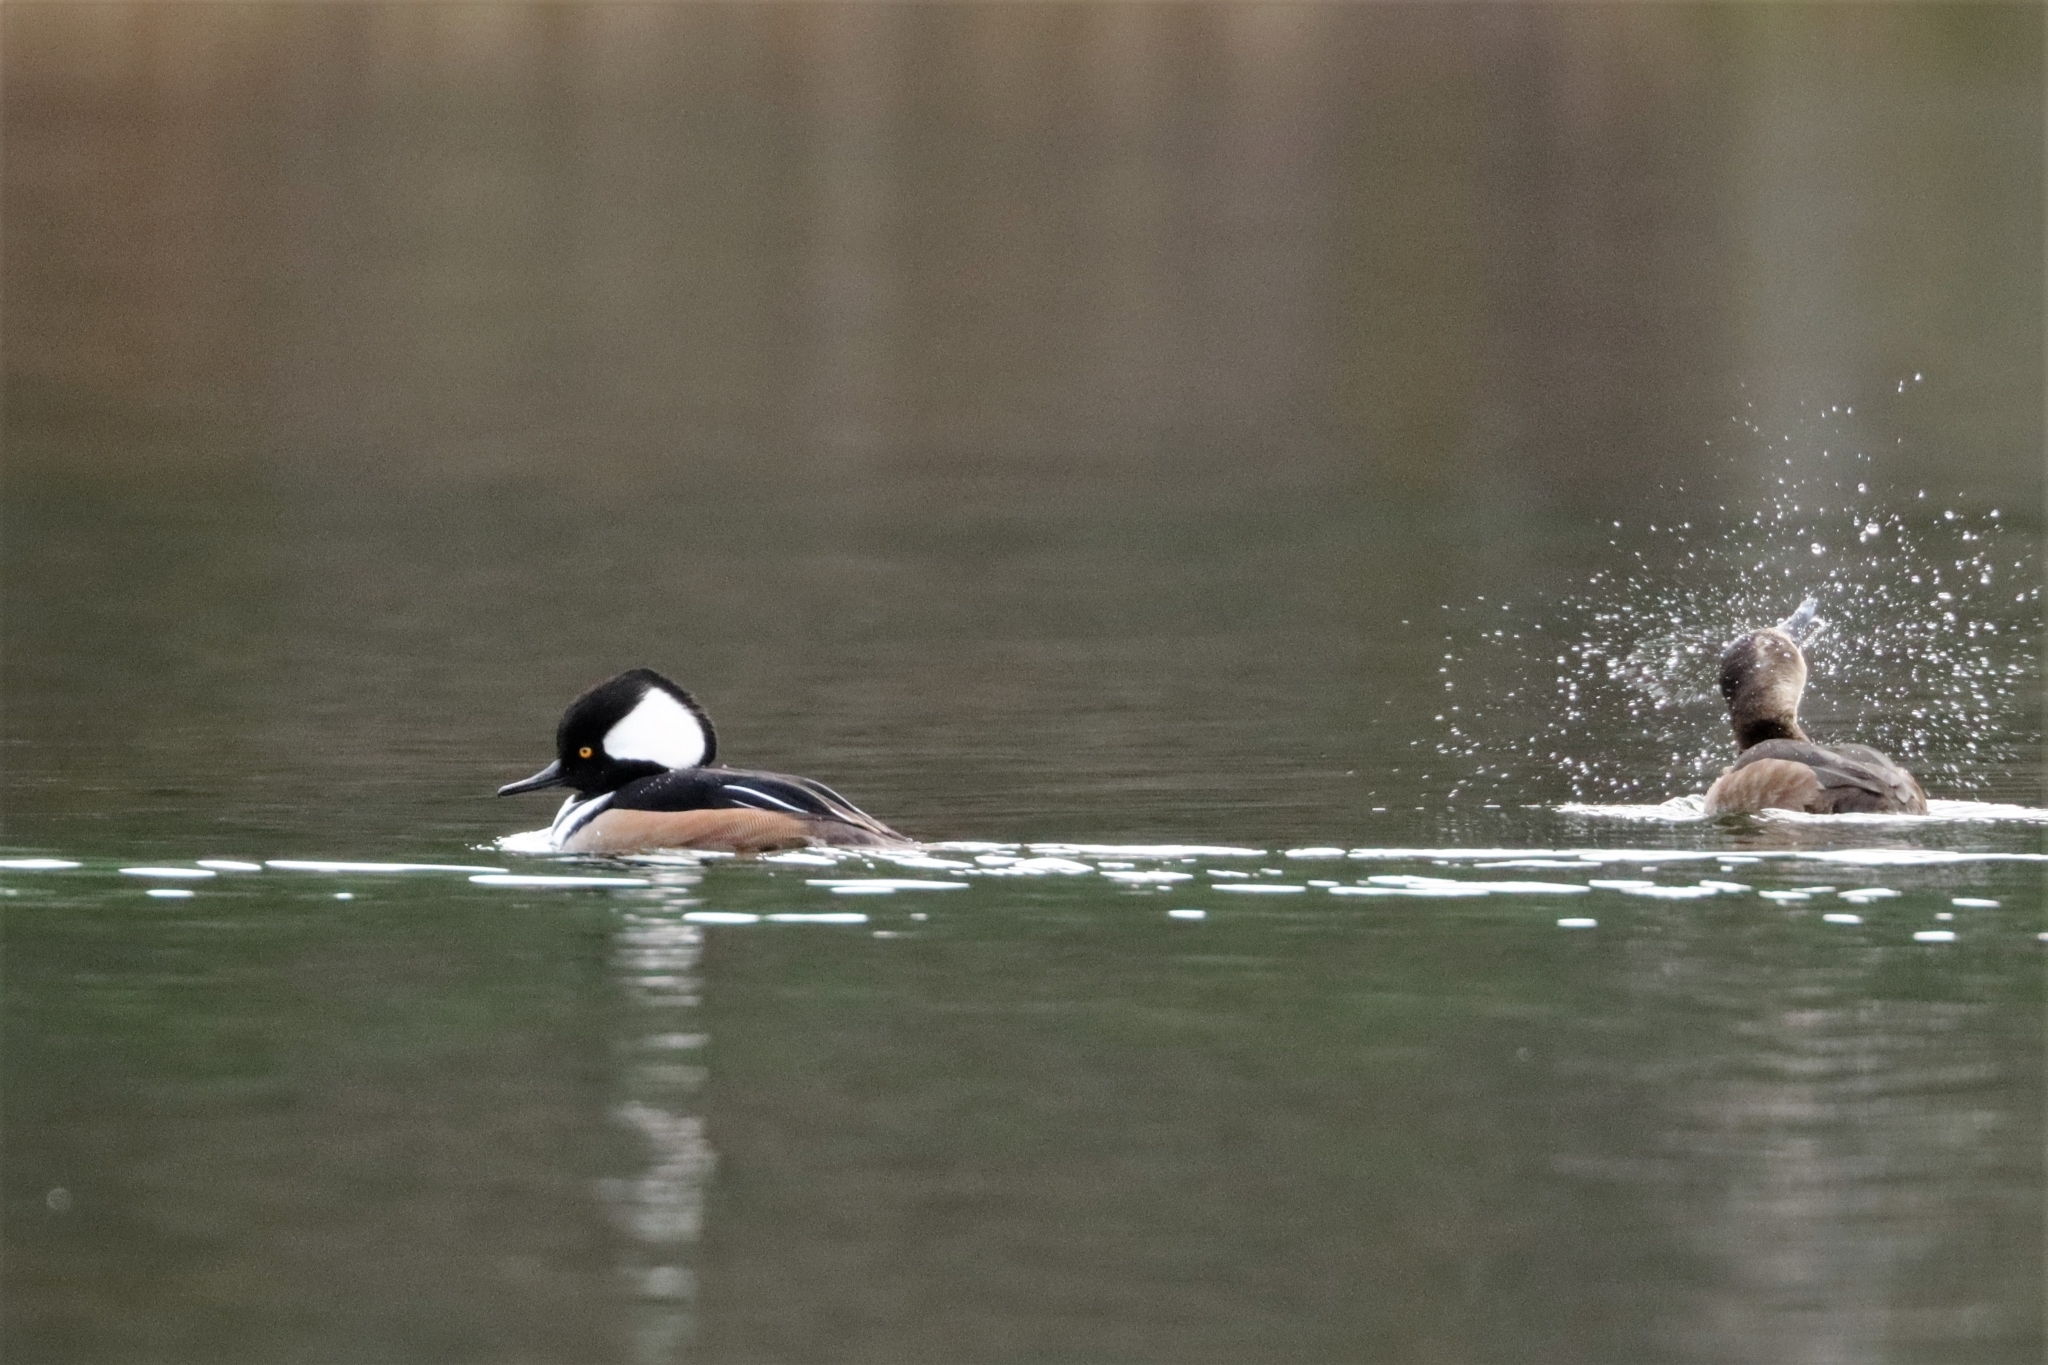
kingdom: Animalia
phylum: Chordata
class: Aves
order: Anseriformes
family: Anatidae
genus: Lophodytes
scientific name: Lophodytes cucullatus
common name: Hooded merganser
